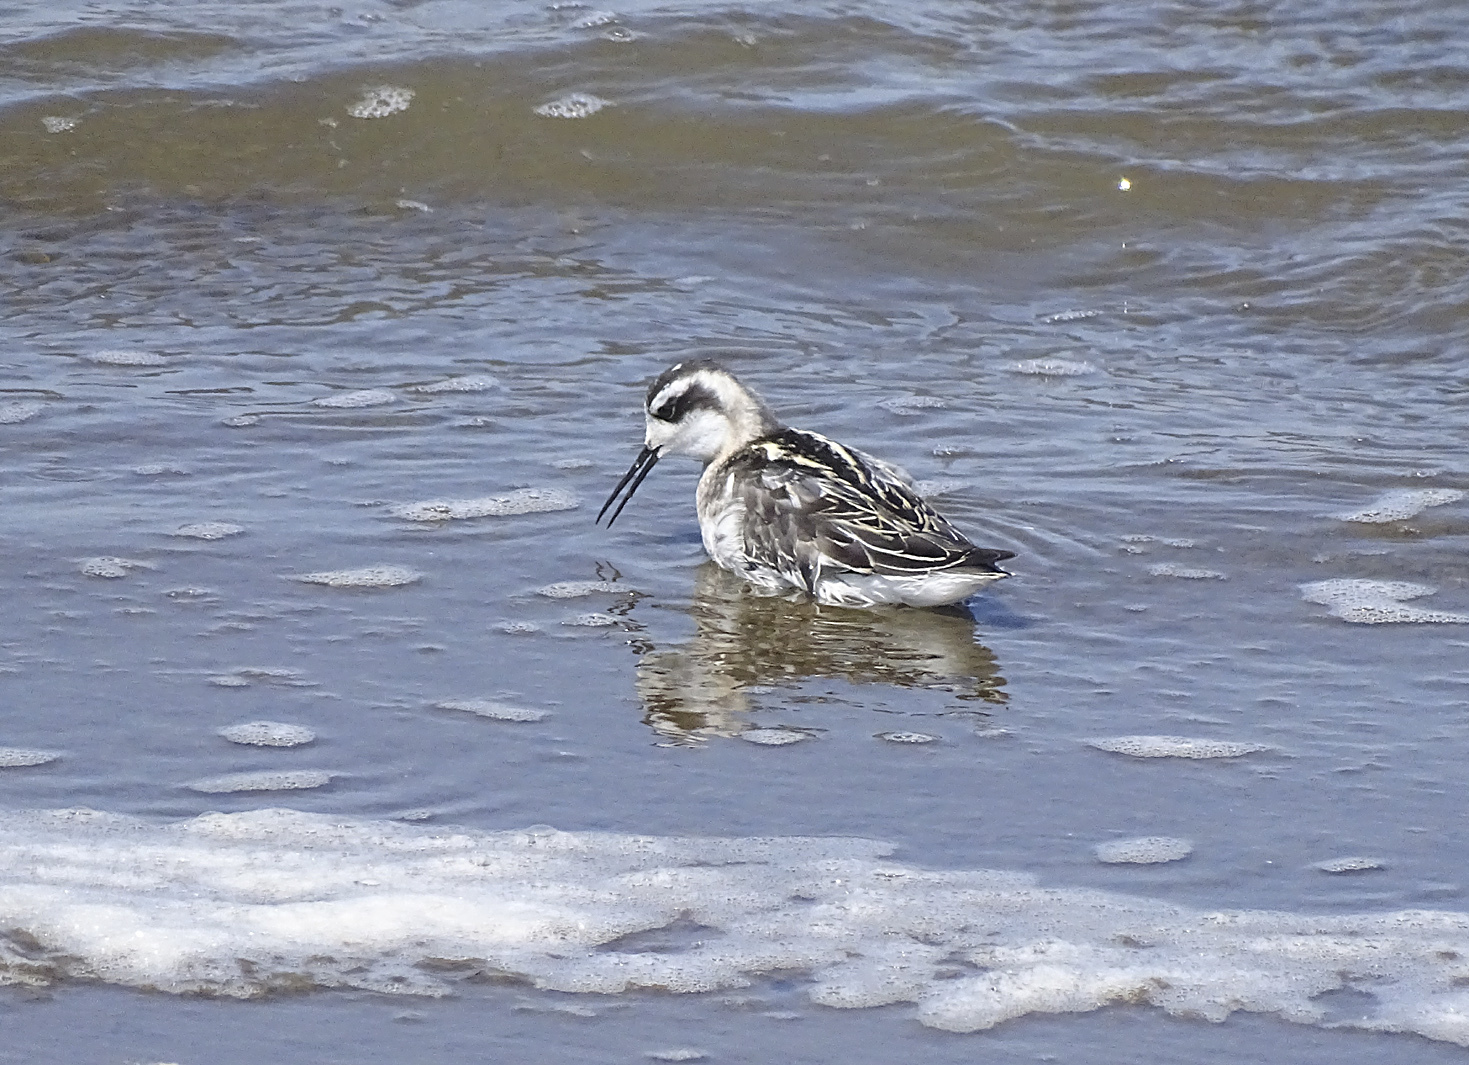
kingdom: Animalia
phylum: Chordata
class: Aves
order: Charadriiformes
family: Scolopacidae
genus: Phalaropus
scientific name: Phalaropus lobatus
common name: Red-necked phalarope
